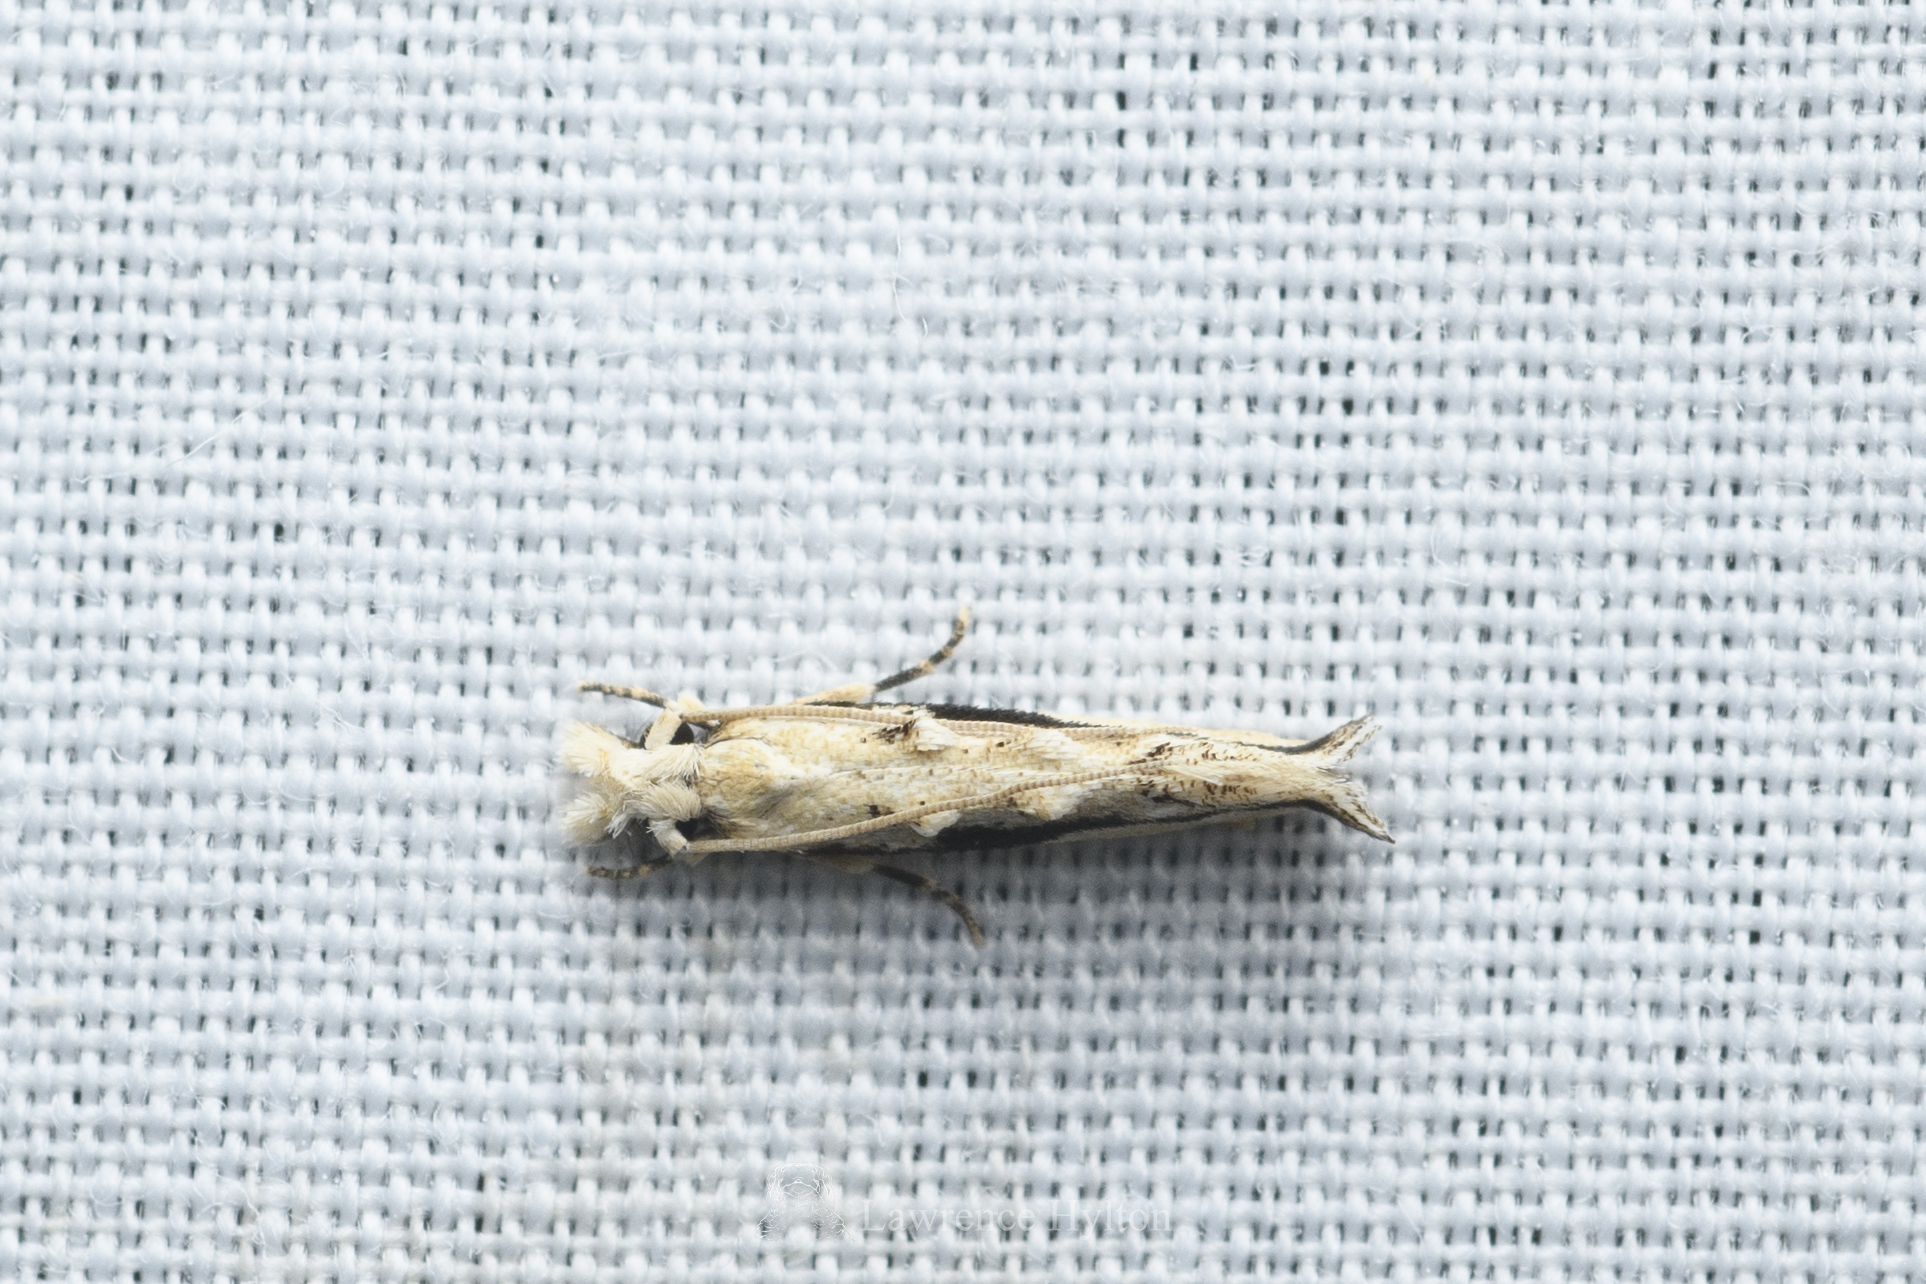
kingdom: Animalia
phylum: Arthropoda
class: Insecta
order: Lepidoptera
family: Tineidae
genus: Erechthias
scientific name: Erechthias atririvis
